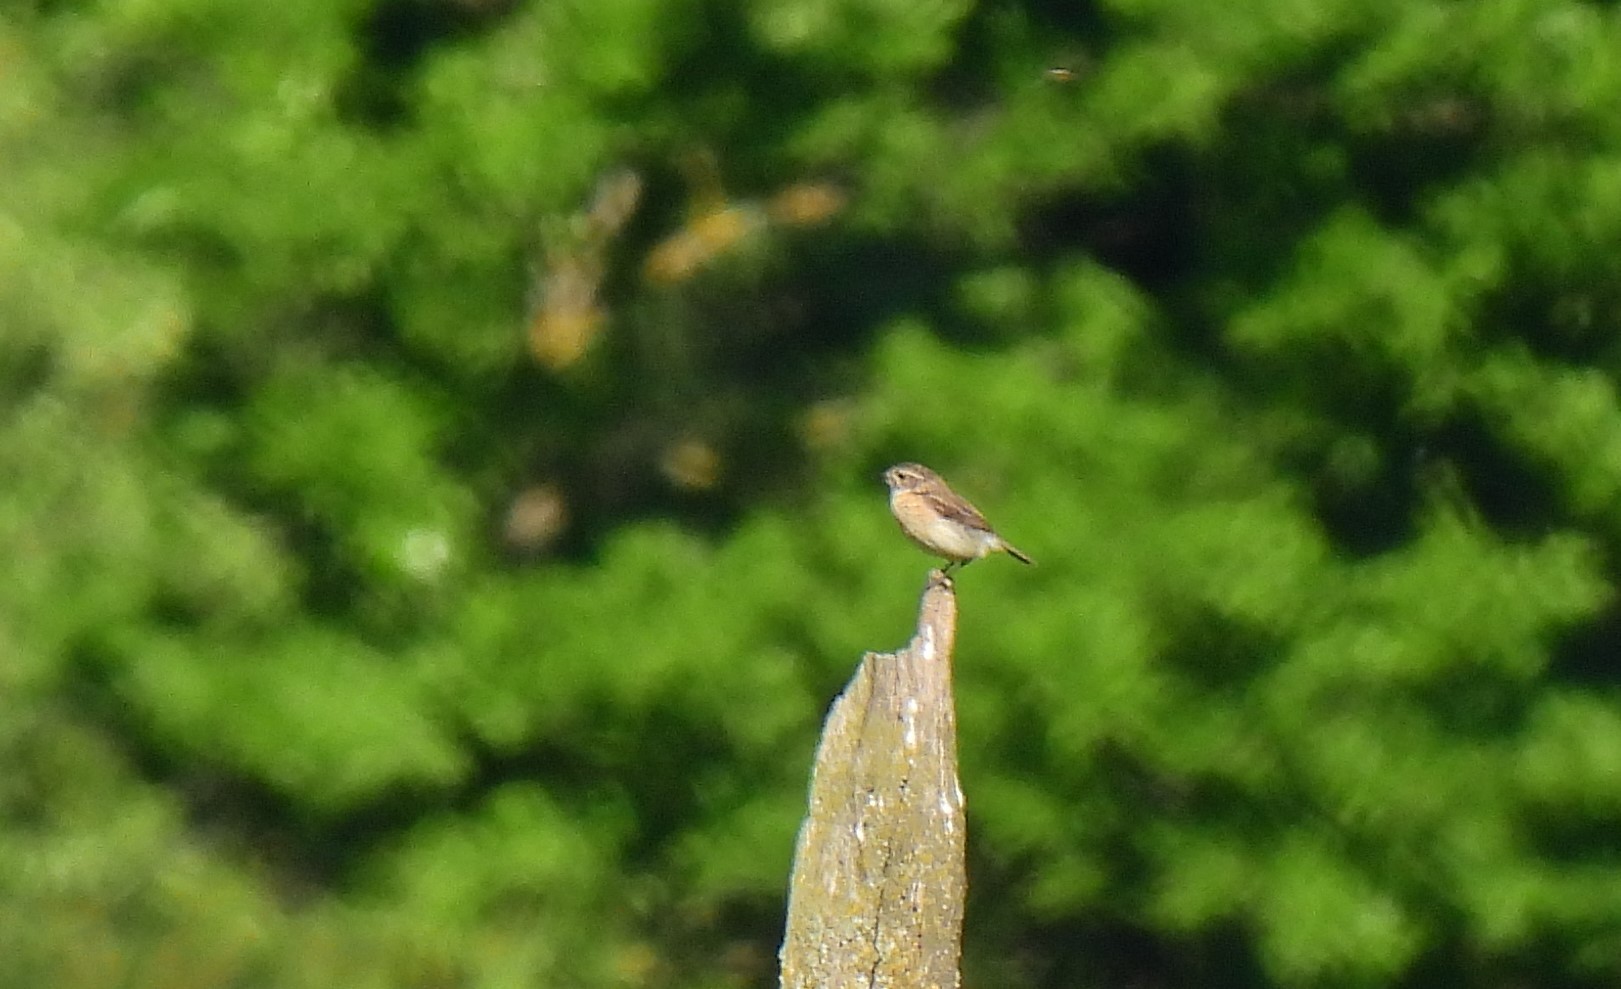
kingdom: Animalia
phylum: Chordata
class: Aves
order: Passeriformes
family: Muscicapidae
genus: Saxicola
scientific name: Saxicola rubetra
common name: Whinchat
